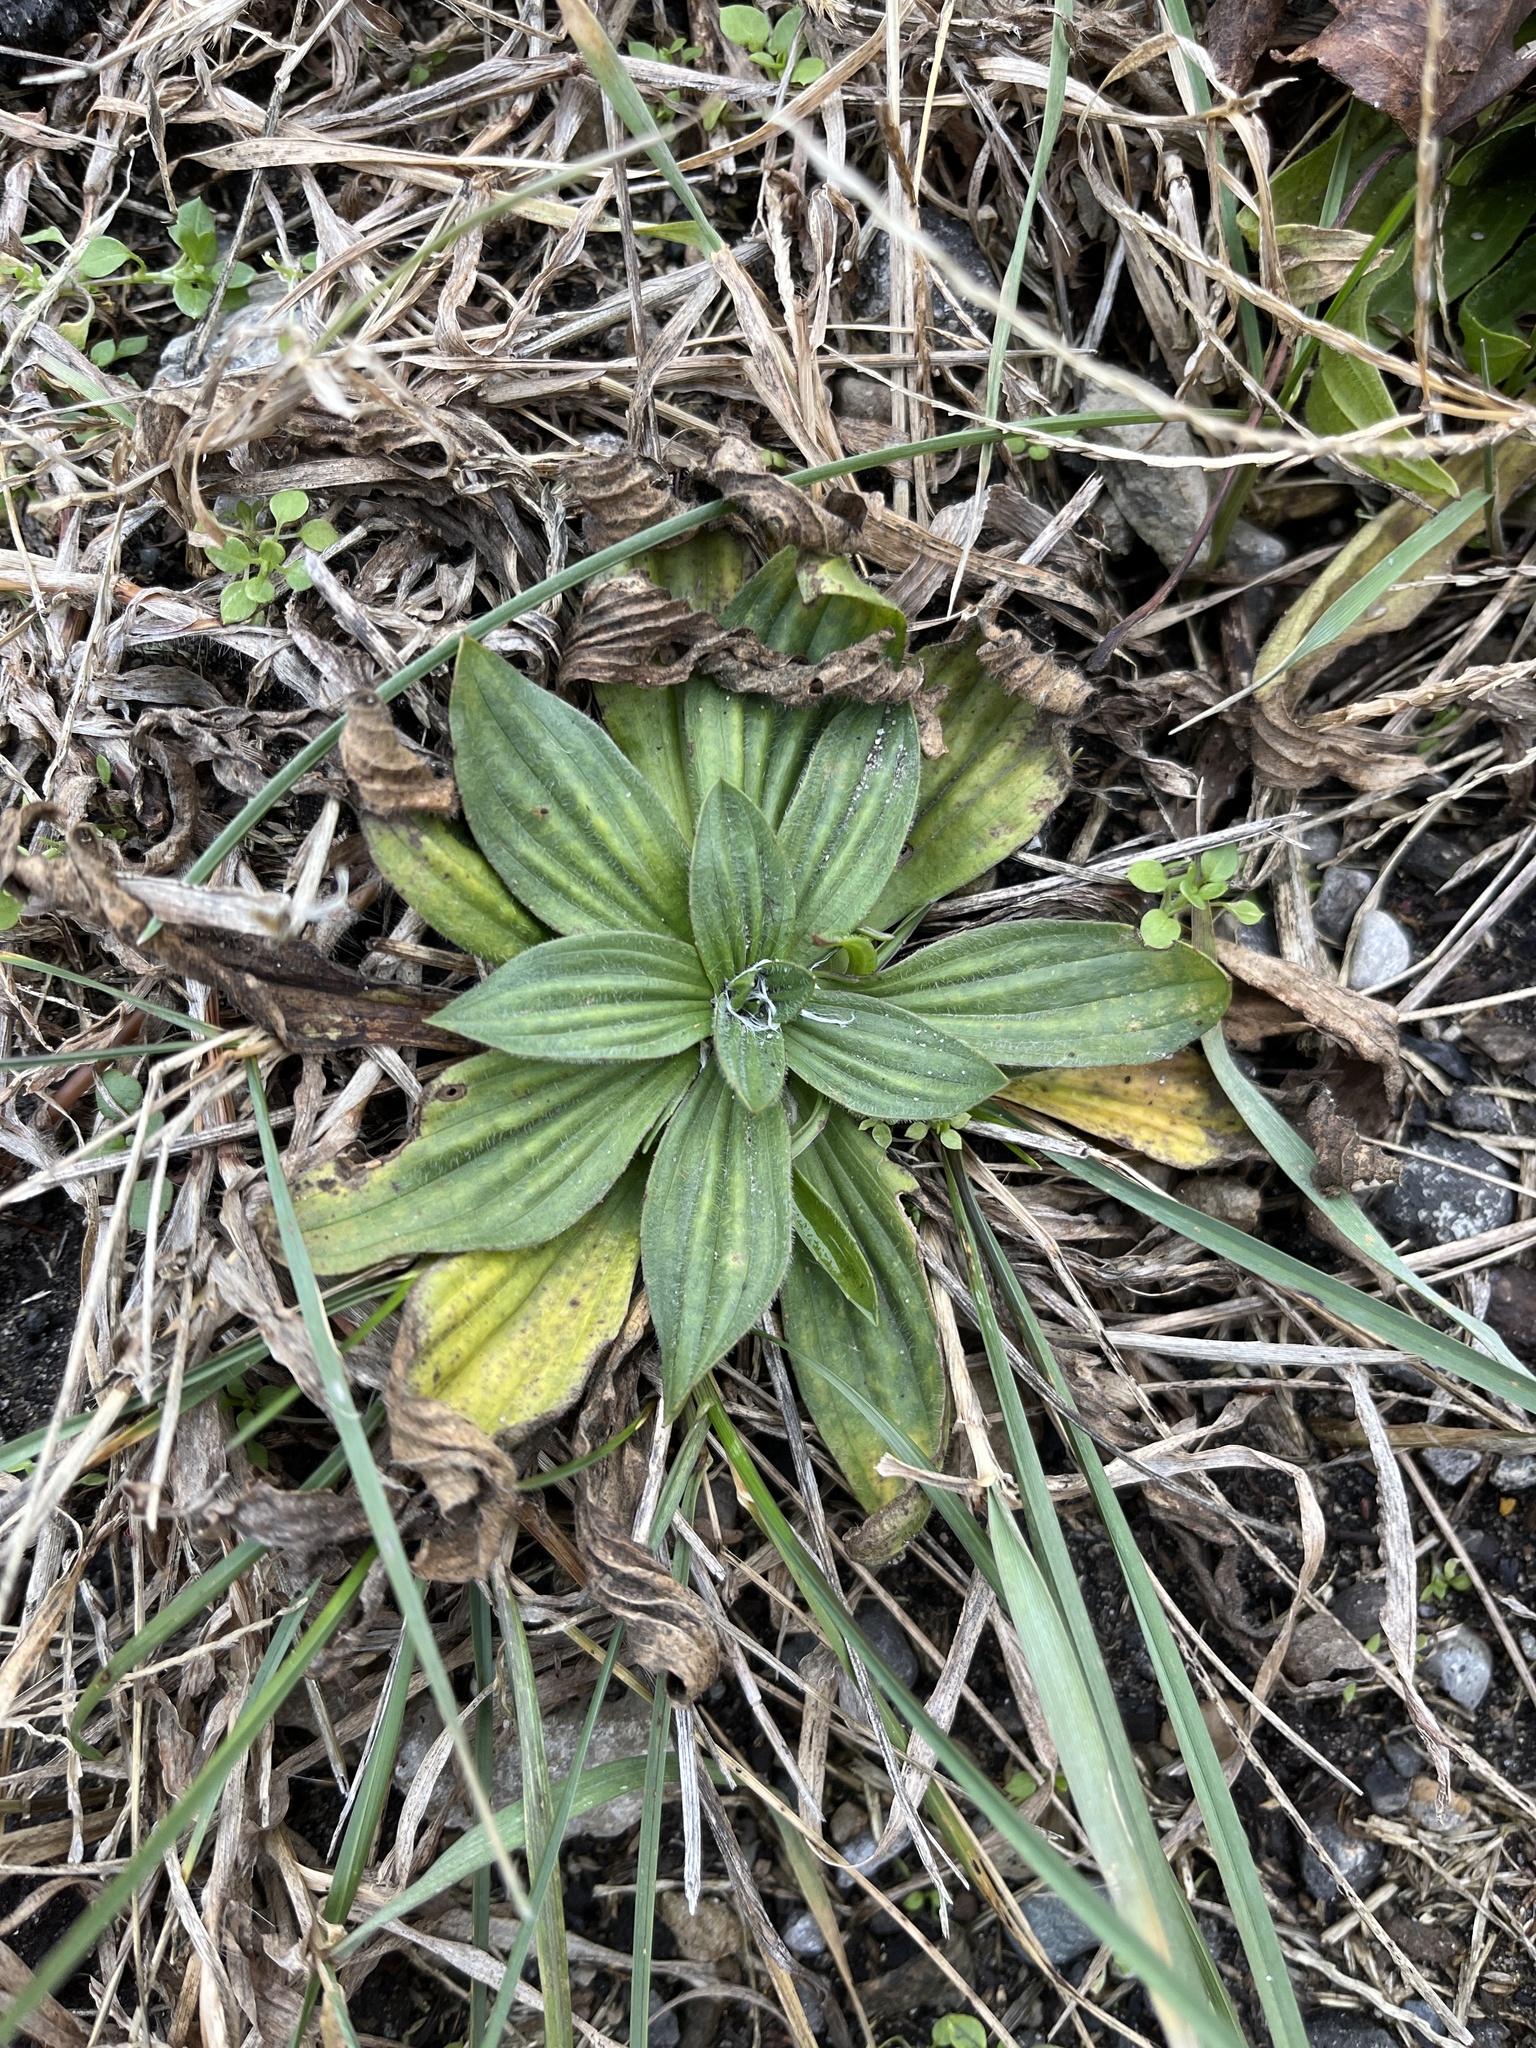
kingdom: Plantae
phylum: Tracheophyta
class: Magnoliopsida
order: Lamiales
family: Plantaginaceae
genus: Plantago
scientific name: Plantago lanceolata
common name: Ribwort plantain
